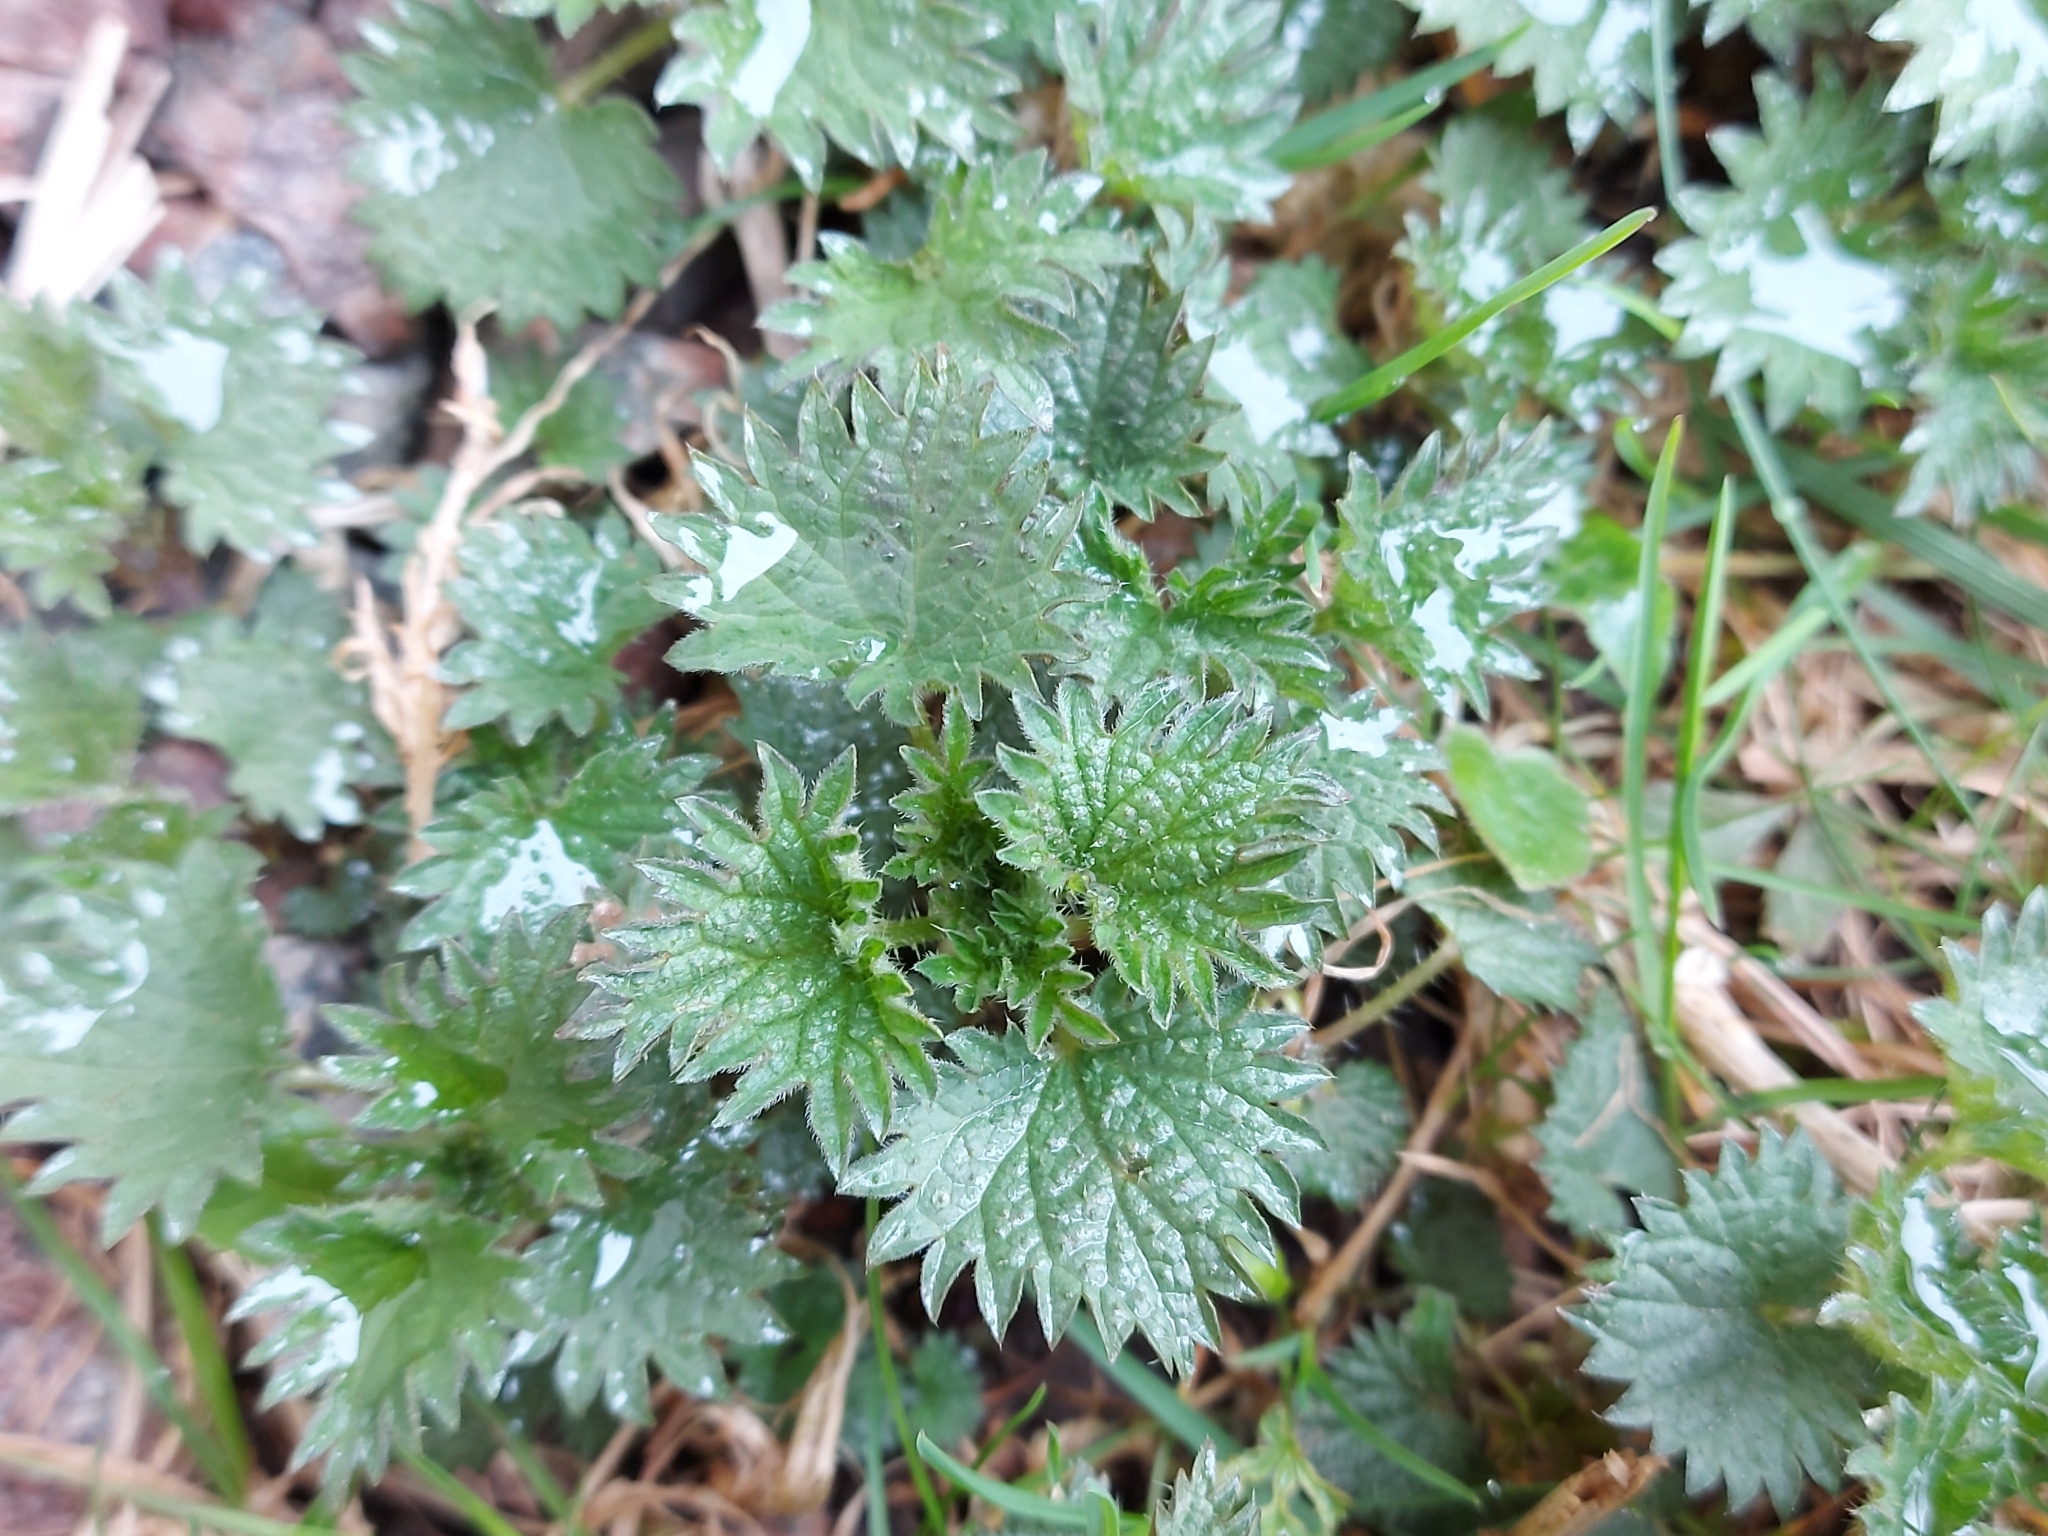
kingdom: Plantae
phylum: Tracheophyta
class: Magnoliopsida
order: Rosales
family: Urticaceae
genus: Urtica
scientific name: Urtica dioica
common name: Common nettle
